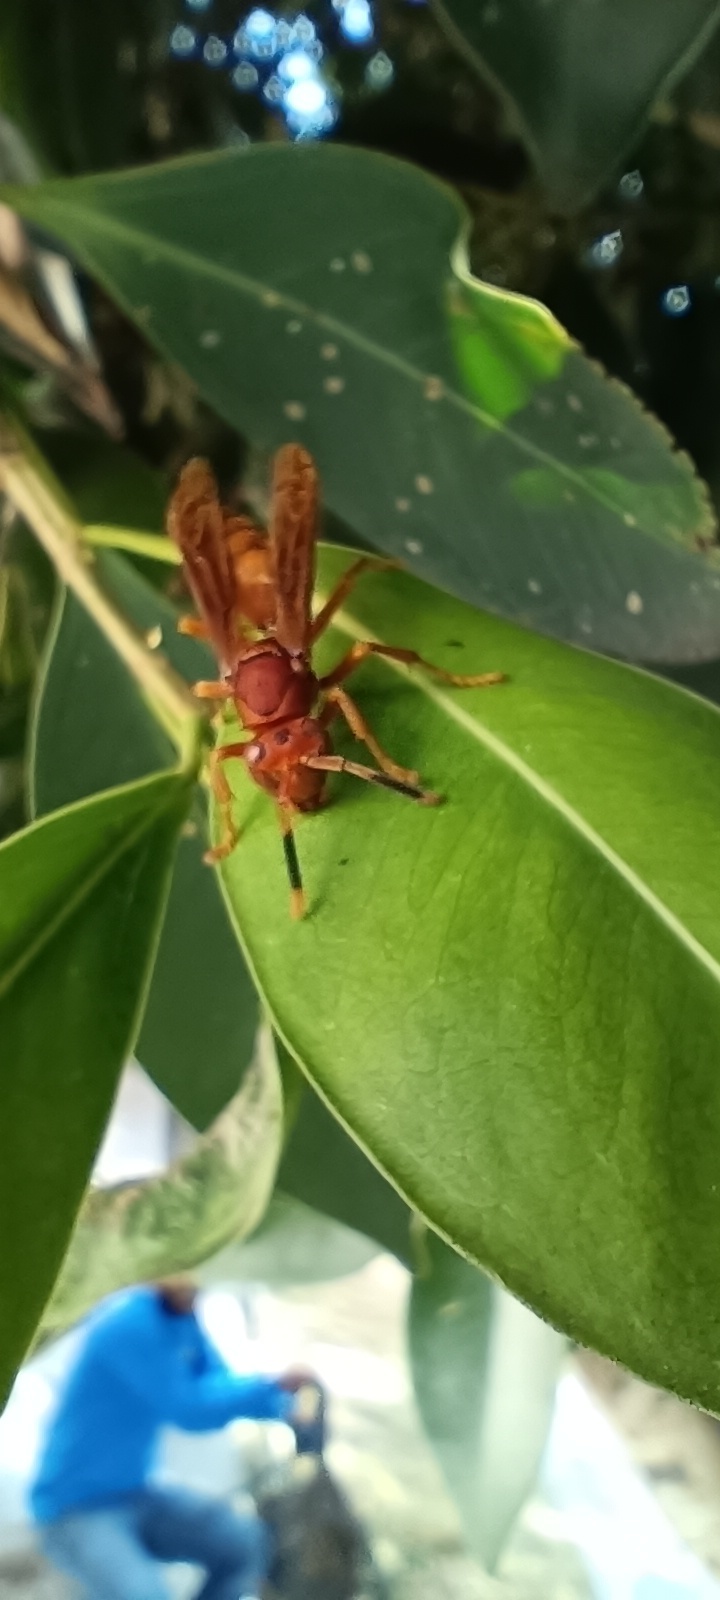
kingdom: Animalia
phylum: Arthropoda
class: Insecta
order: Hymenoptera
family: Eumenidae
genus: Polistes
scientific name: Polistes canadensis
